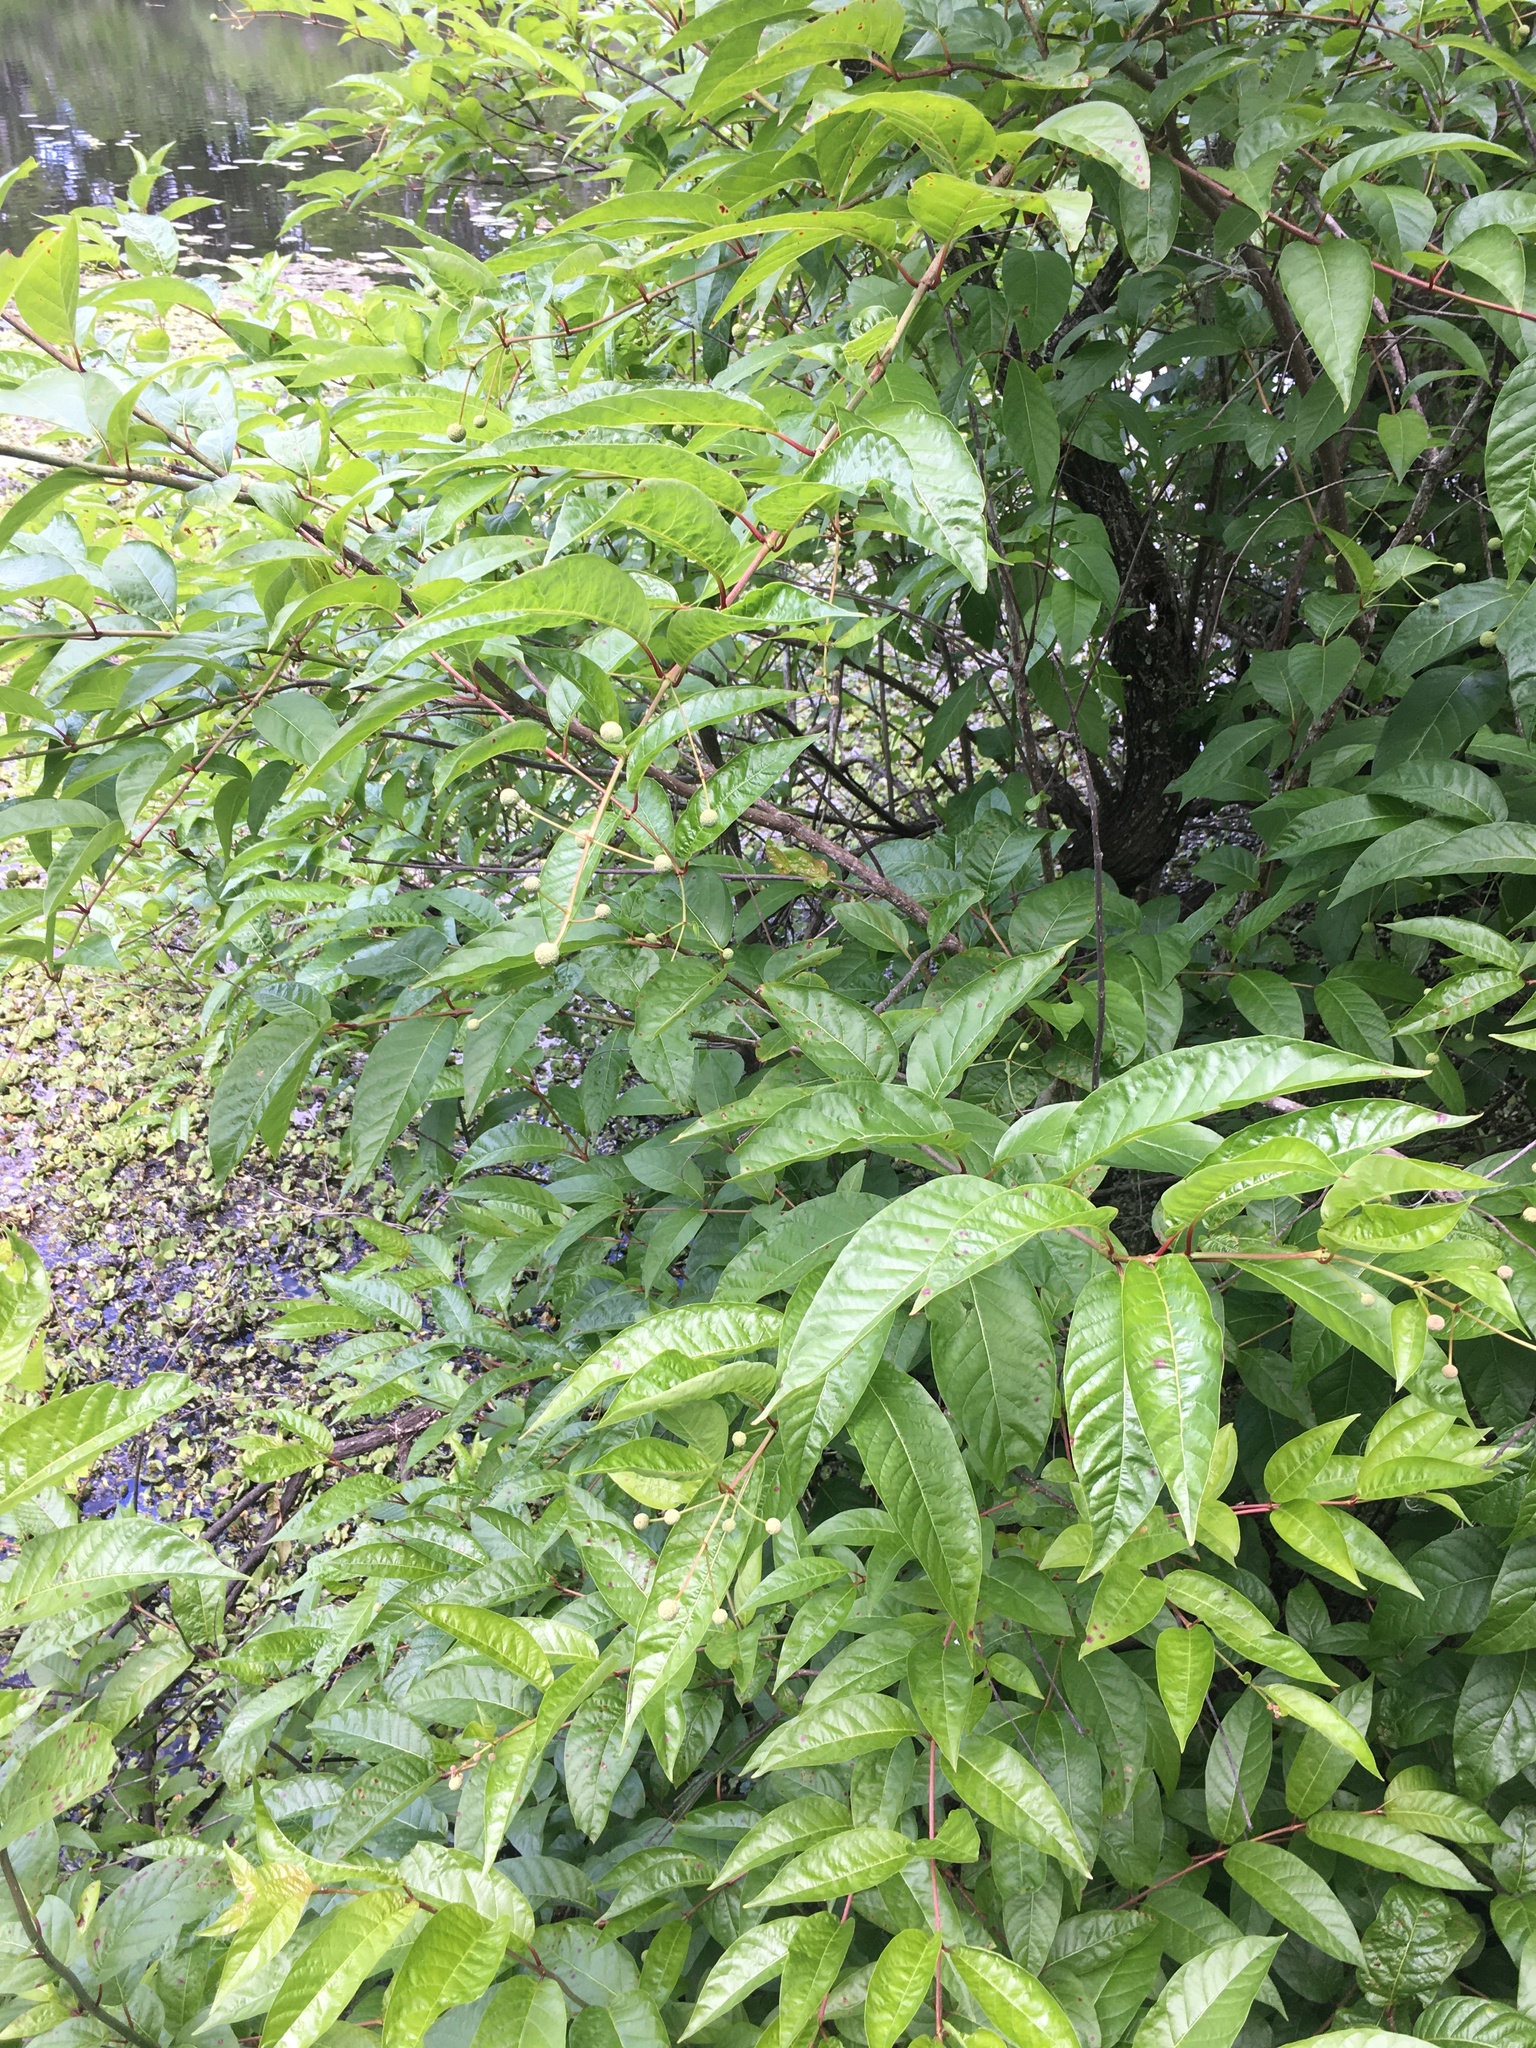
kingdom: Plantae
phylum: Tracheophyta
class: Magnoliopsida
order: Gentianales
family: Rubiaceae
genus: Cephalanthus
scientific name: Cephalanthus occidentalis
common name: Button-willow
